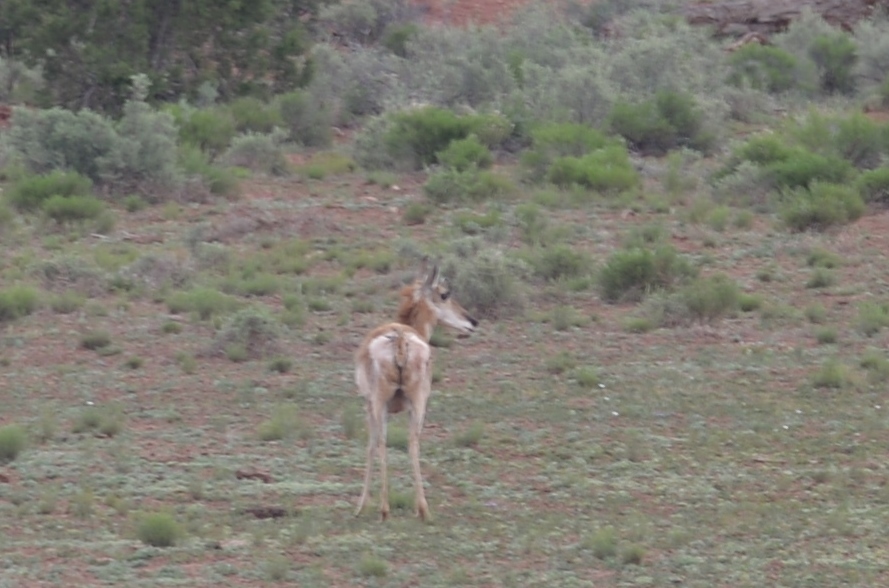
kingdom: Animalia
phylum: Chordata
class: Mammalia
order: Artiodactyla
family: Antilocapridae
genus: Antilocapra
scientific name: Antilocapra americana
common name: Pronghorn
